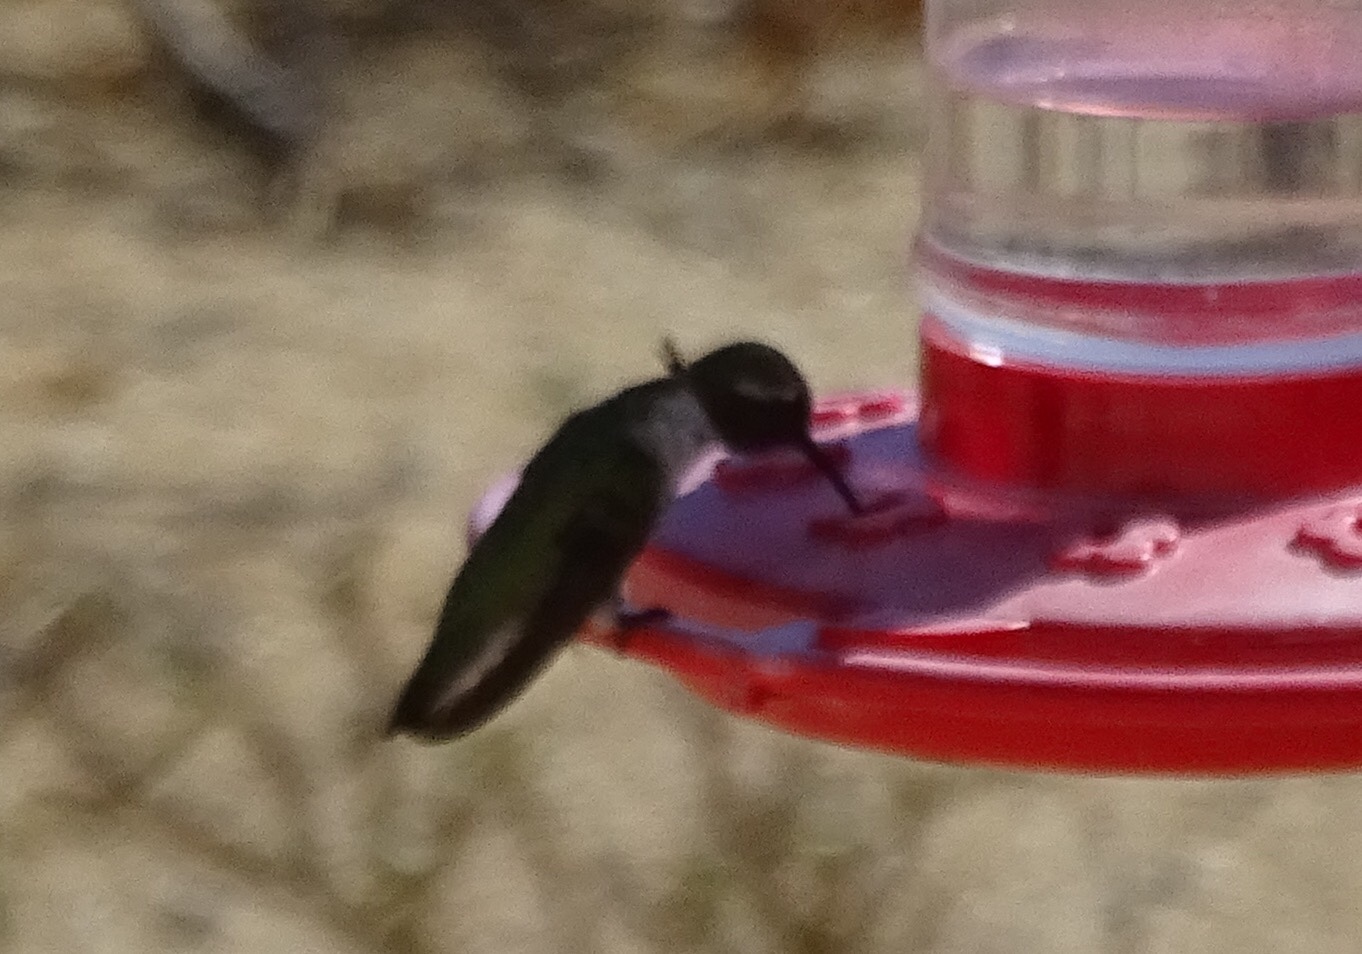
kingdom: Animalia
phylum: Chordata
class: Aves
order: Apodiformes
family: Trochilidae
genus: Calypte
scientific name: Calypte costae
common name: Costa's hummingbird
